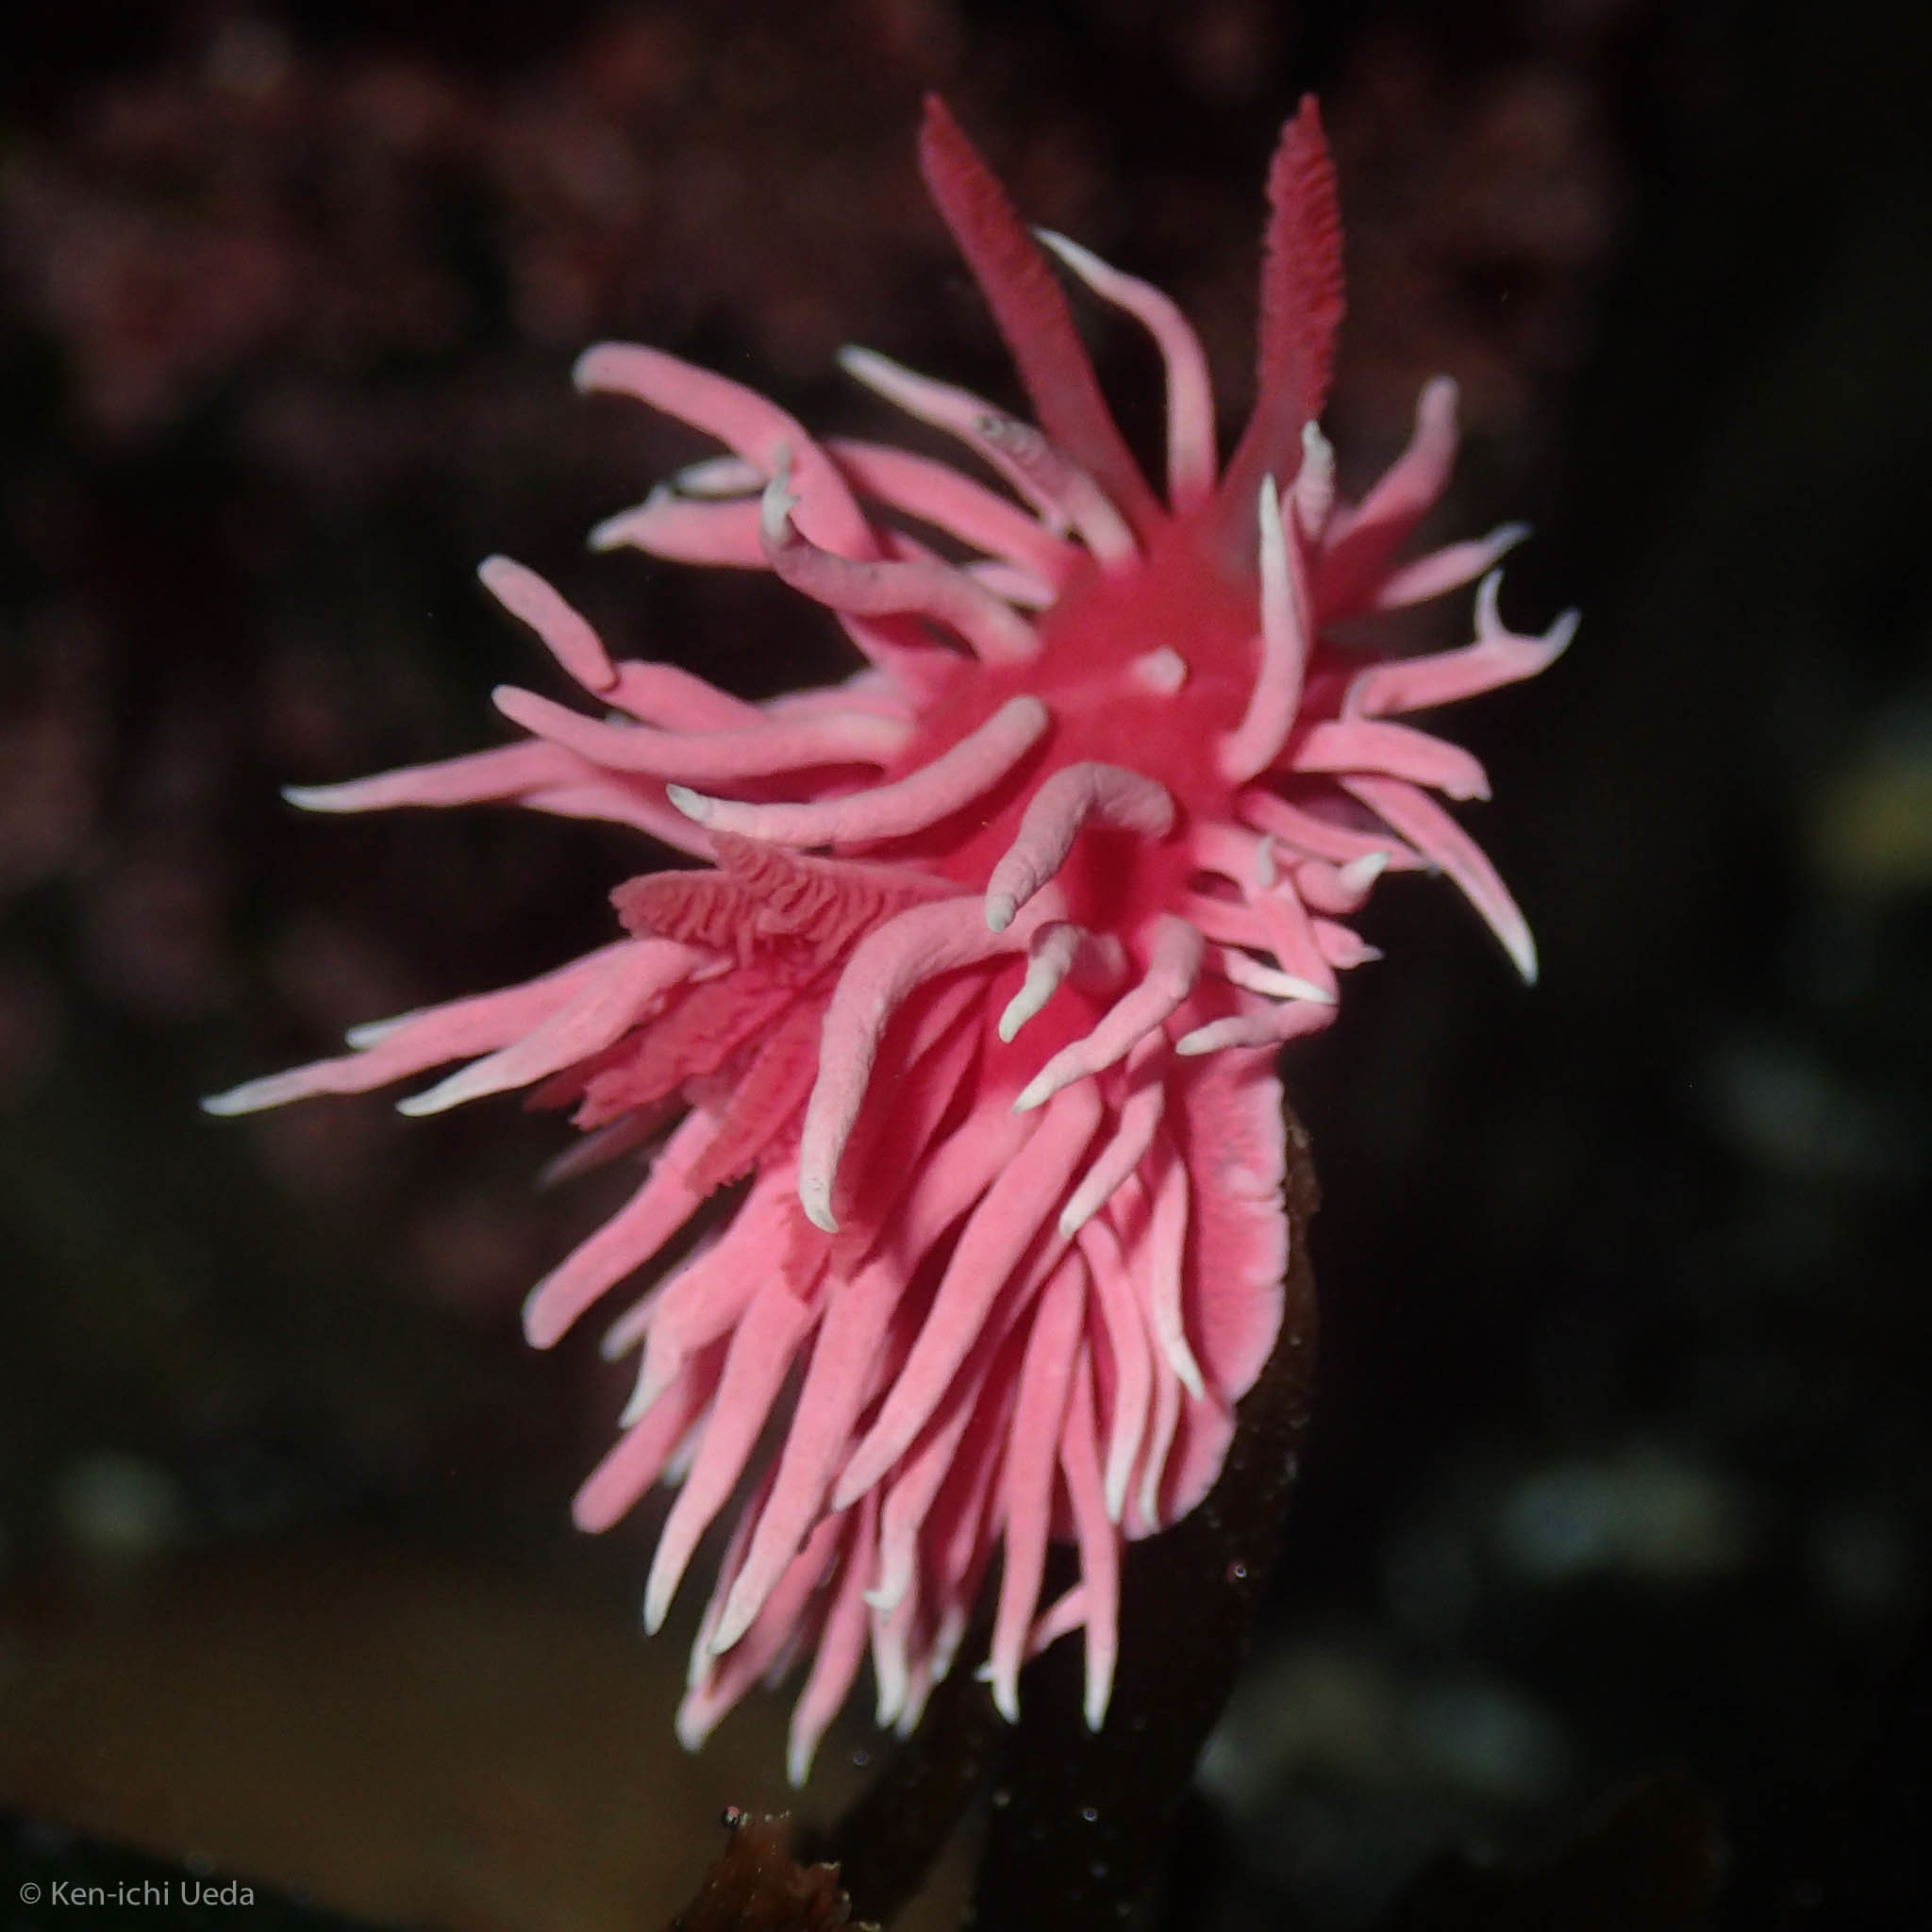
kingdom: Animalia
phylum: Mollusca
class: Gastropoda
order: Nudibranchia
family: Goniodorididae
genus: Okenia
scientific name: Okenia
